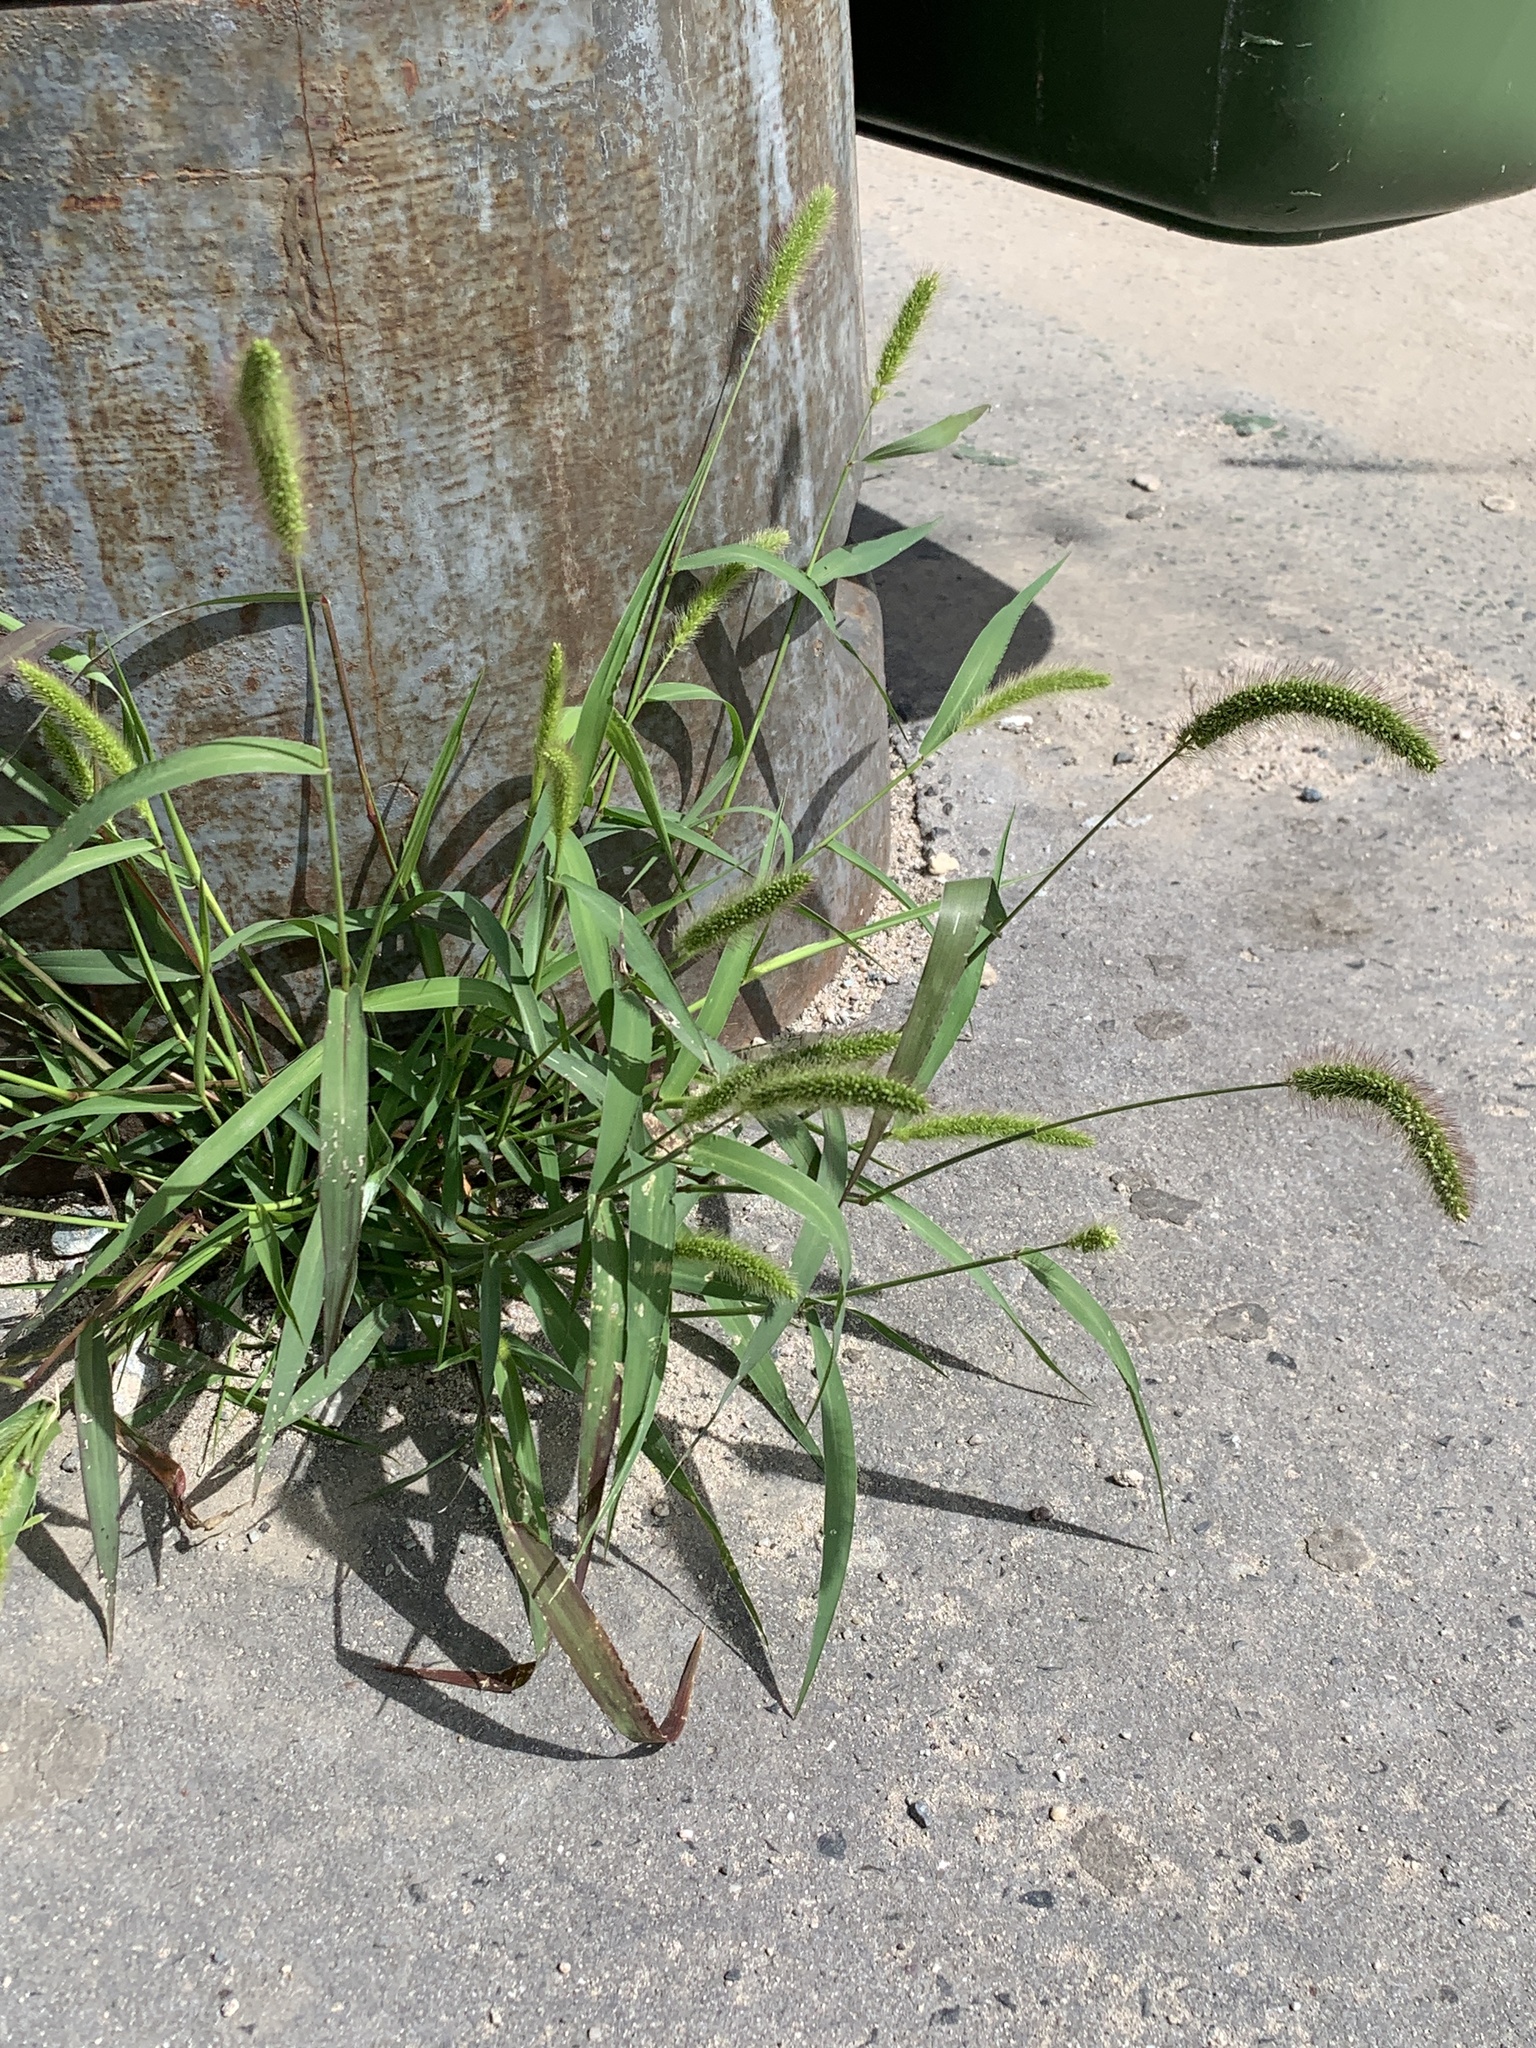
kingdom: Plantae
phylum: Tracheophyta
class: Liliopsida
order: Poales
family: Poaceae
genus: Setaria
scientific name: Setaria viridis
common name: Green bristlegrass
